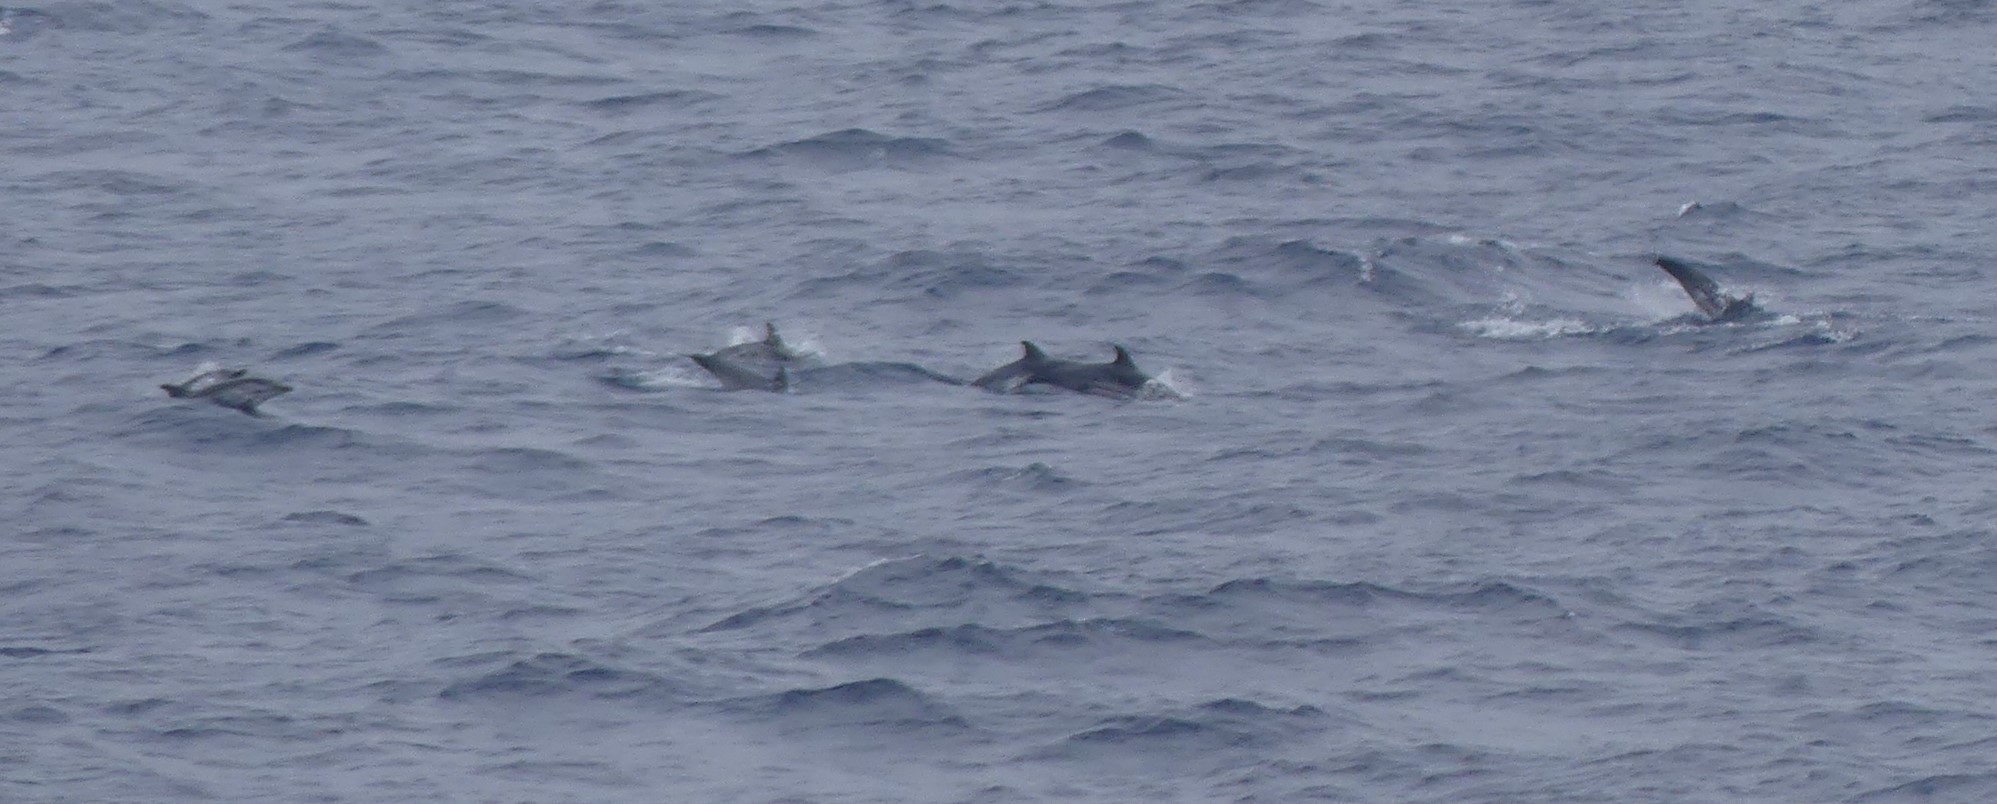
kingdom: Animalia
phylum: Chordata
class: Mammalia
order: Cetacea
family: Delphinidae
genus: Stenella
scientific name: Stenella coeruleoalba
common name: Striped dolphin
